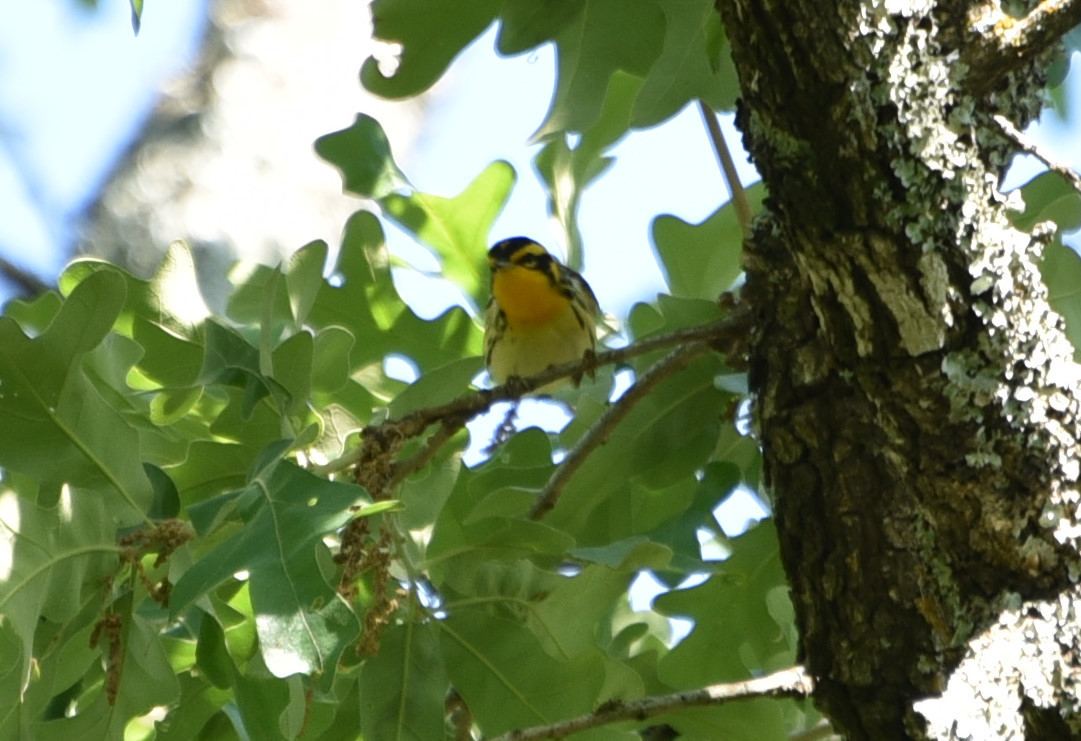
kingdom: Animalia
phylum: Chordata
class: Aves
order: Passeriformes
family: Parulidae
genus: Setophaga
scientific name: Setophaga fusca
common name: Blackburnian warbler
